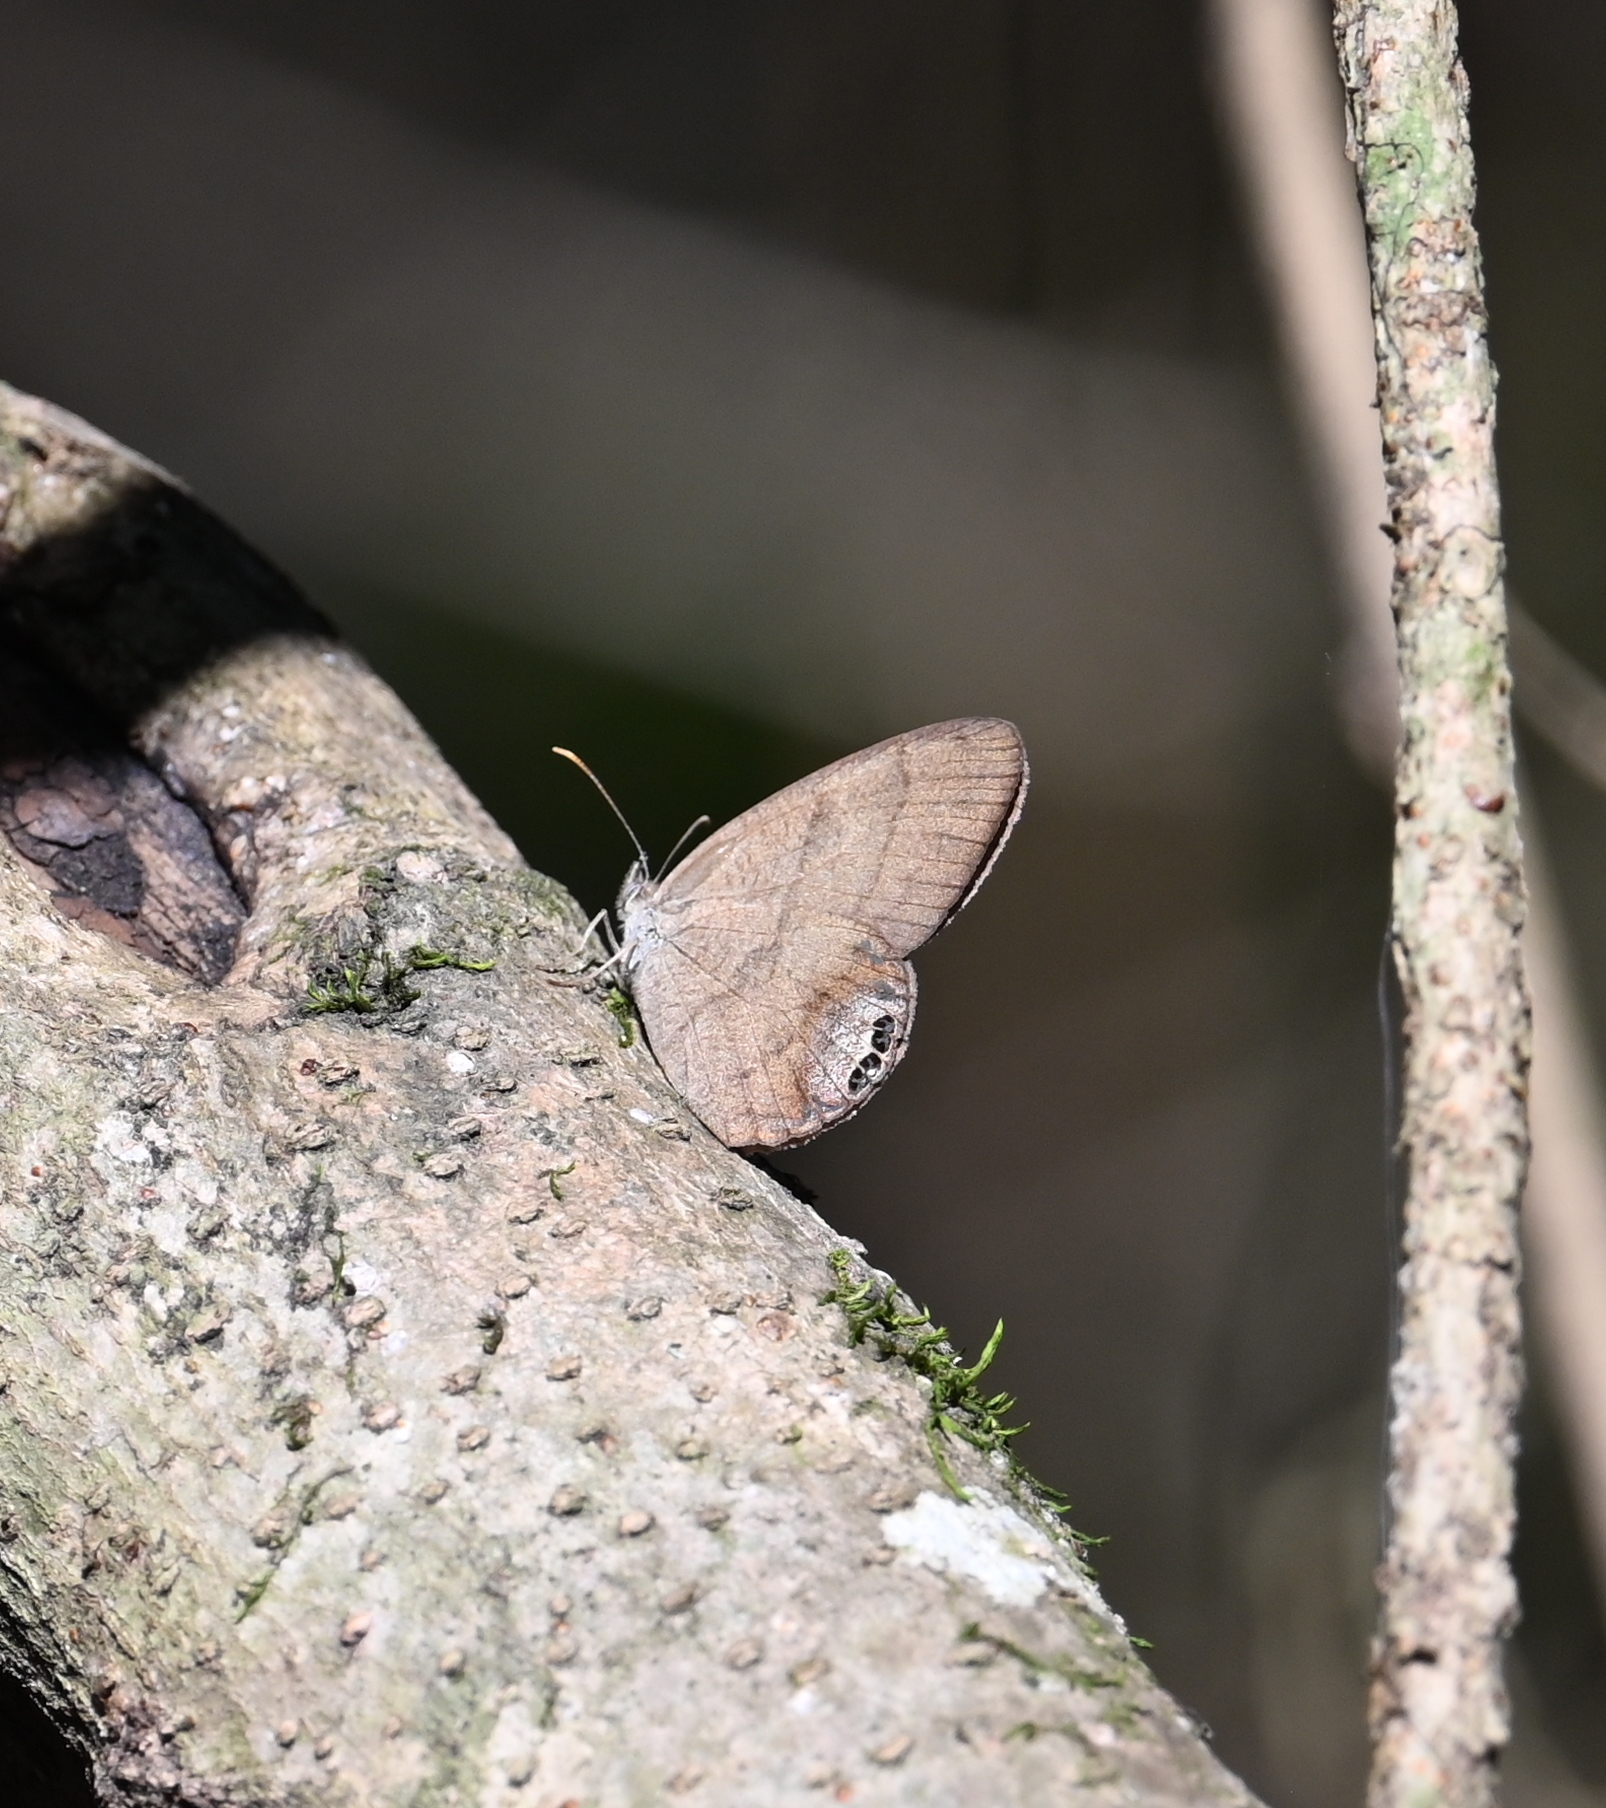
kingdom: Animalia
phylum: Arthropoda
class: Insecta
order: Lepidoptera
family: Nymphalidae
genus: Euptychia
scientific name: Euptychia cornelius
